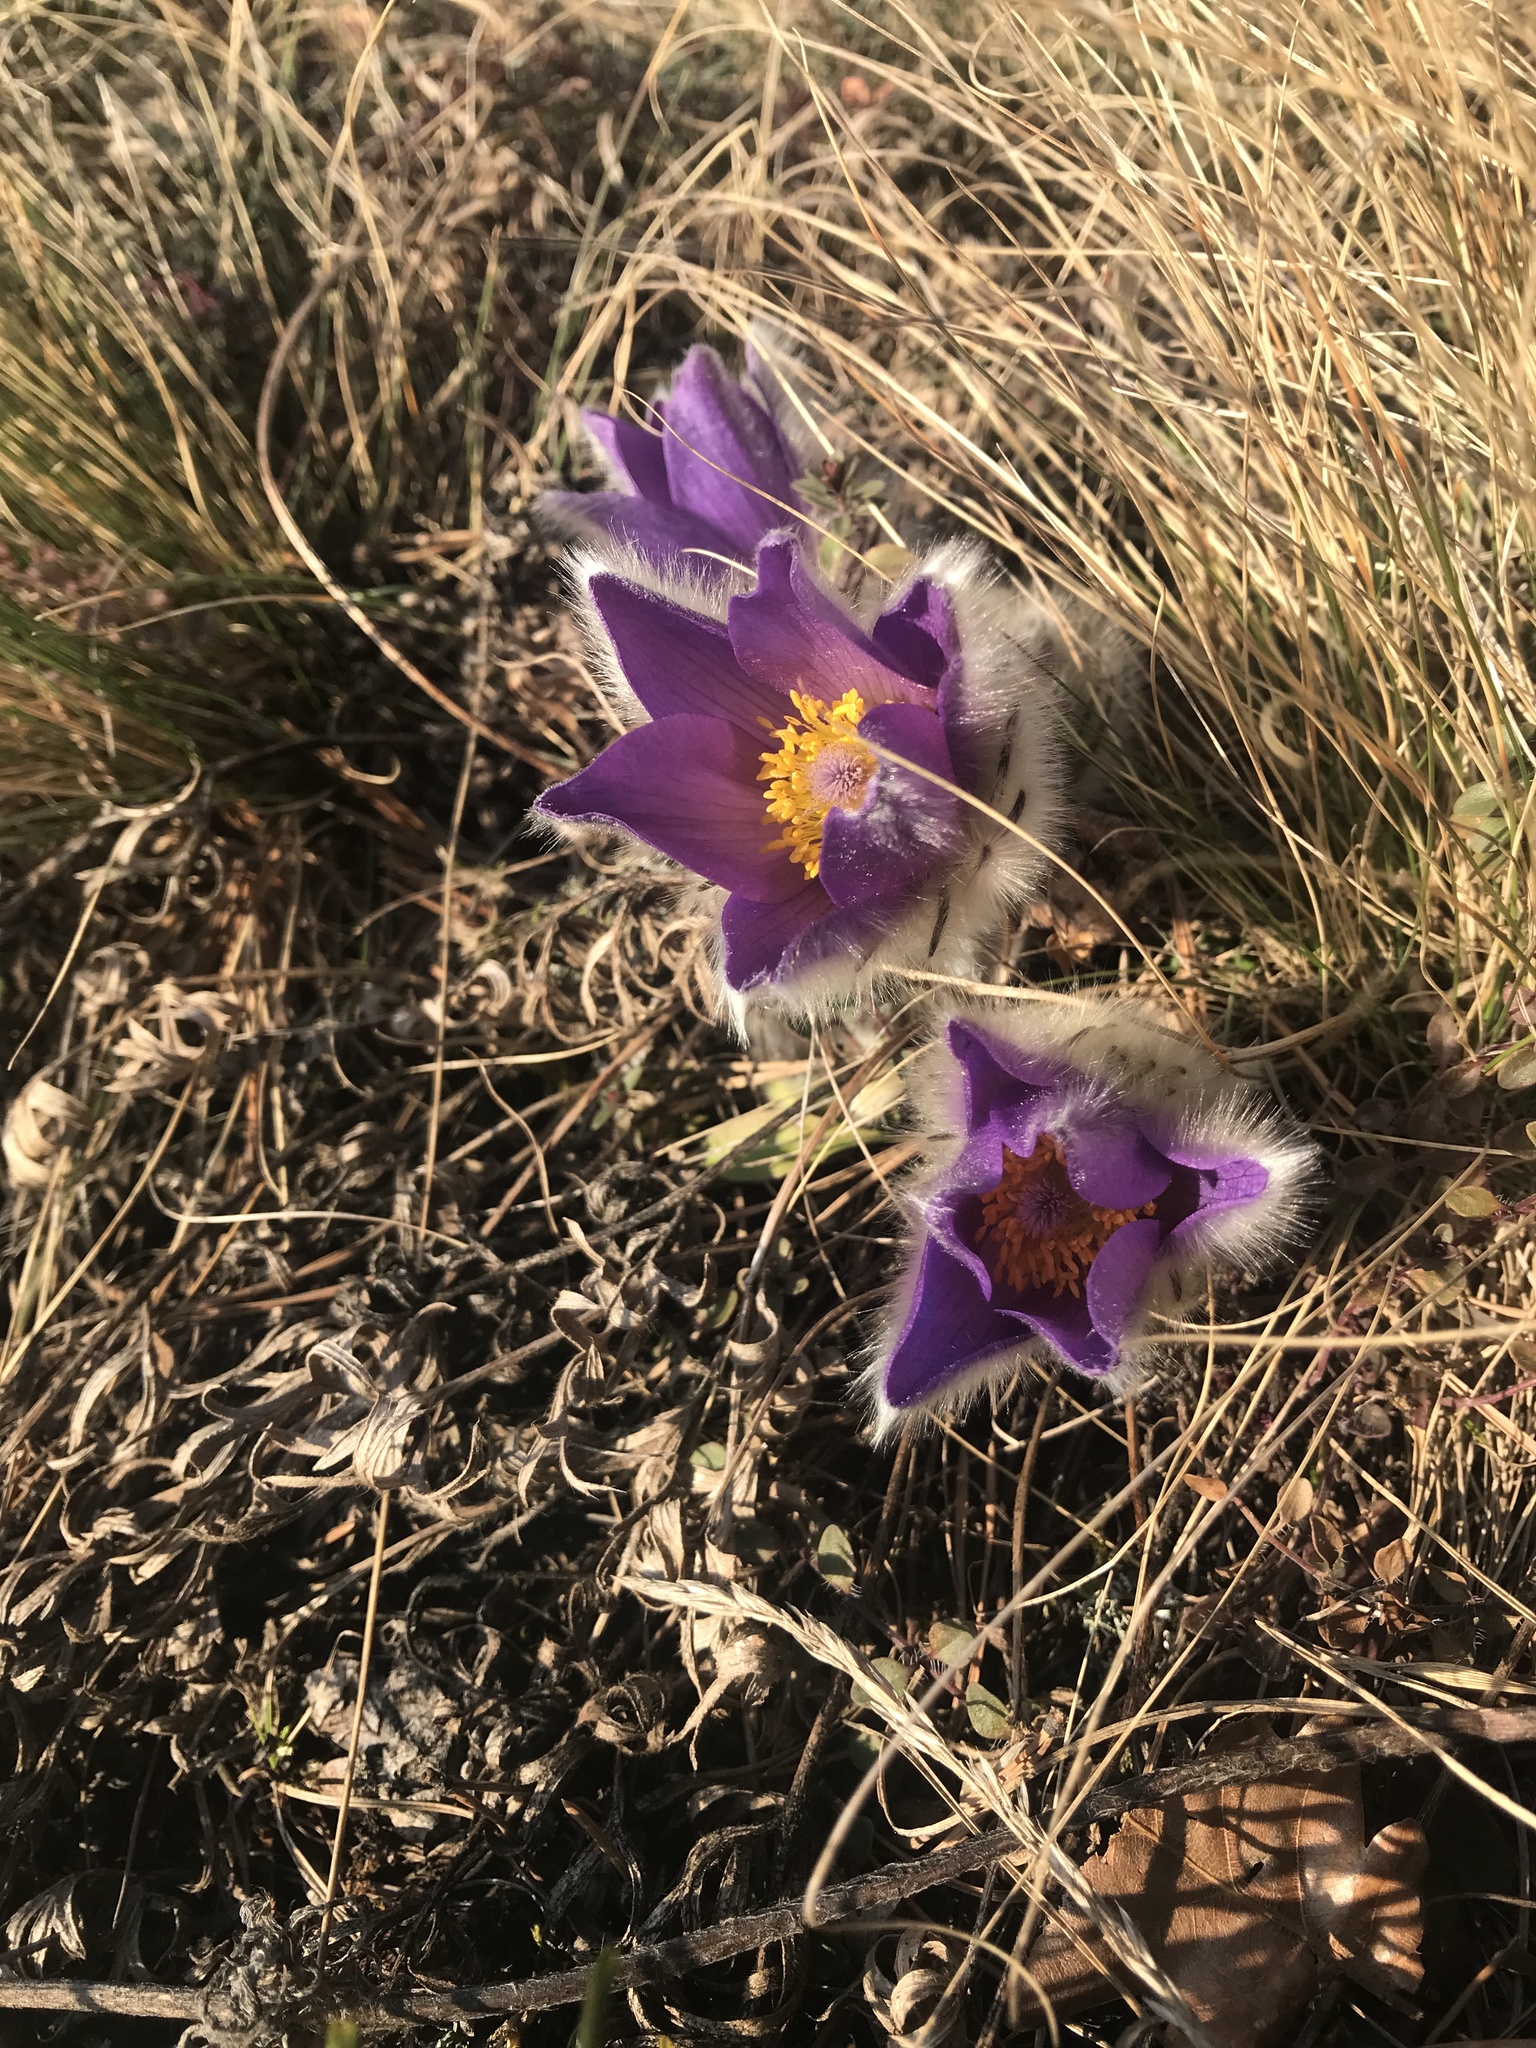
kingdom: Plantae
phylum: Tracheophyta
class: Magnoliopsida
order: Ranunculales
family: Ranunculaceae
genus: Pulsatilla
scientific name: Pulsatilla grandis
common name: Greater pasque flower
